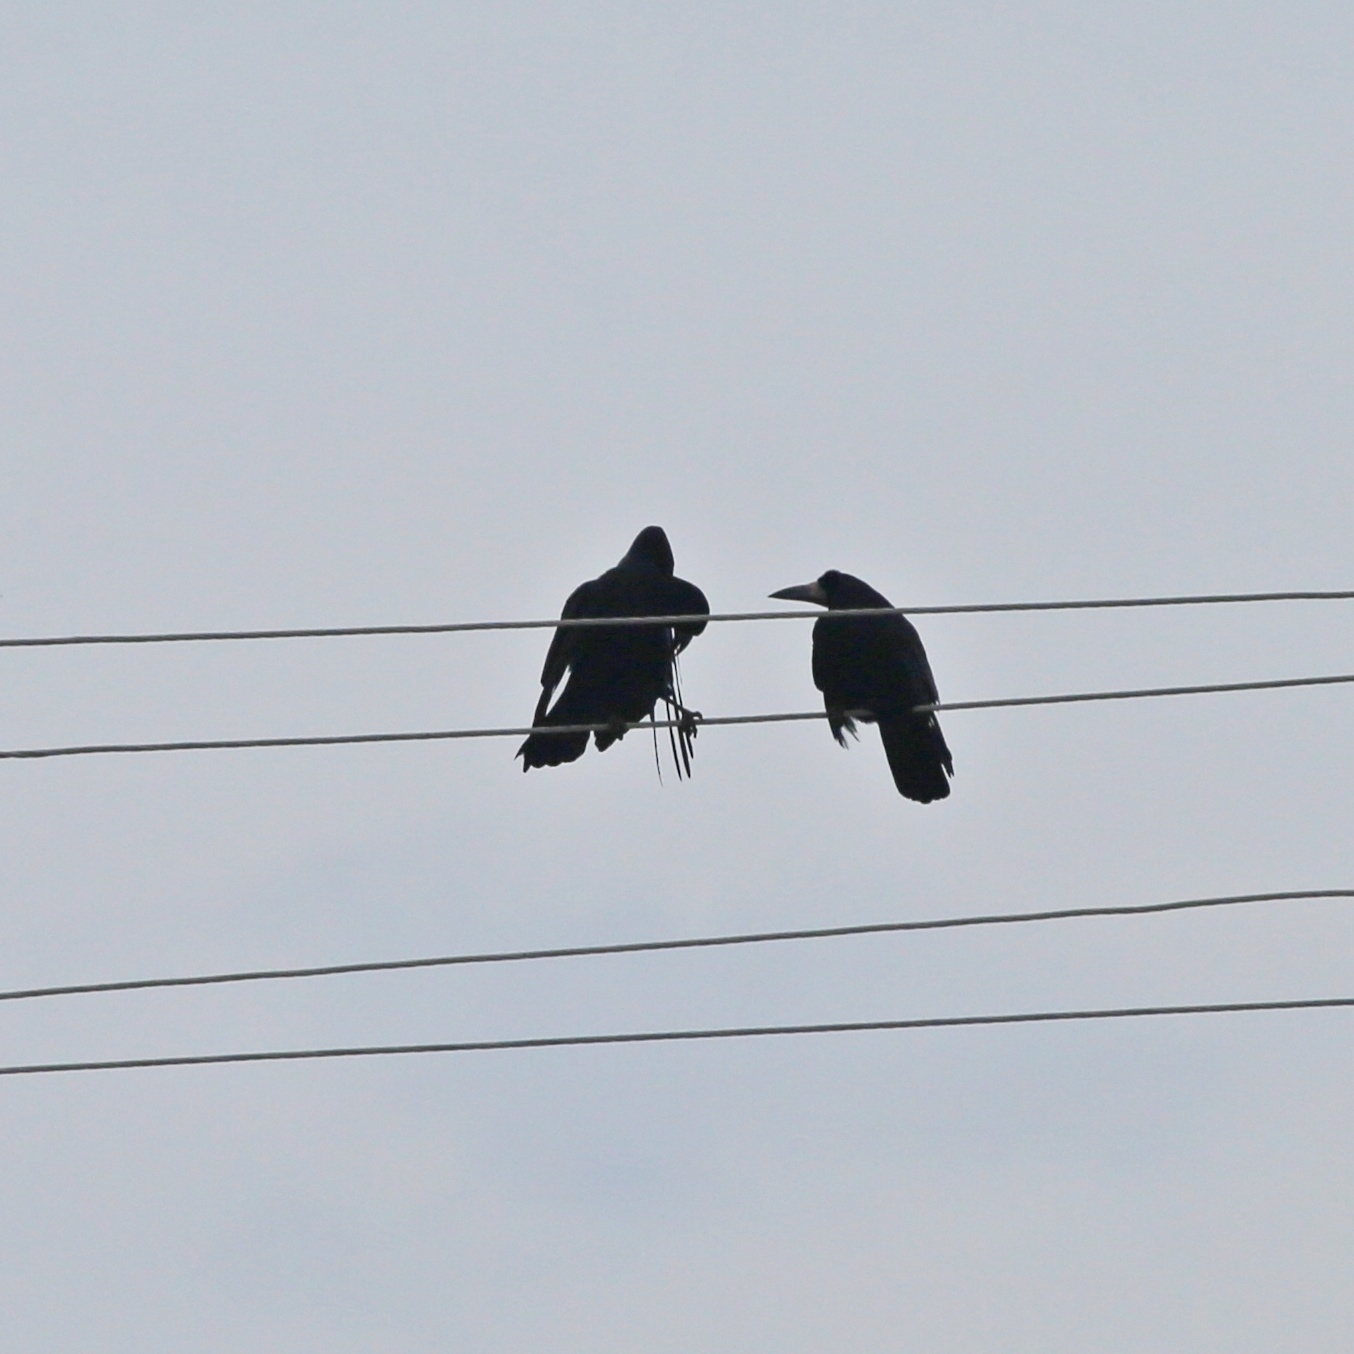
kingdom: Animalia
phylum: Chordata
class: Aves
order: Passeriformes
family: Corvidae
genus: Corvus
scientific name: Corvus frugilegus
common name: Rook
